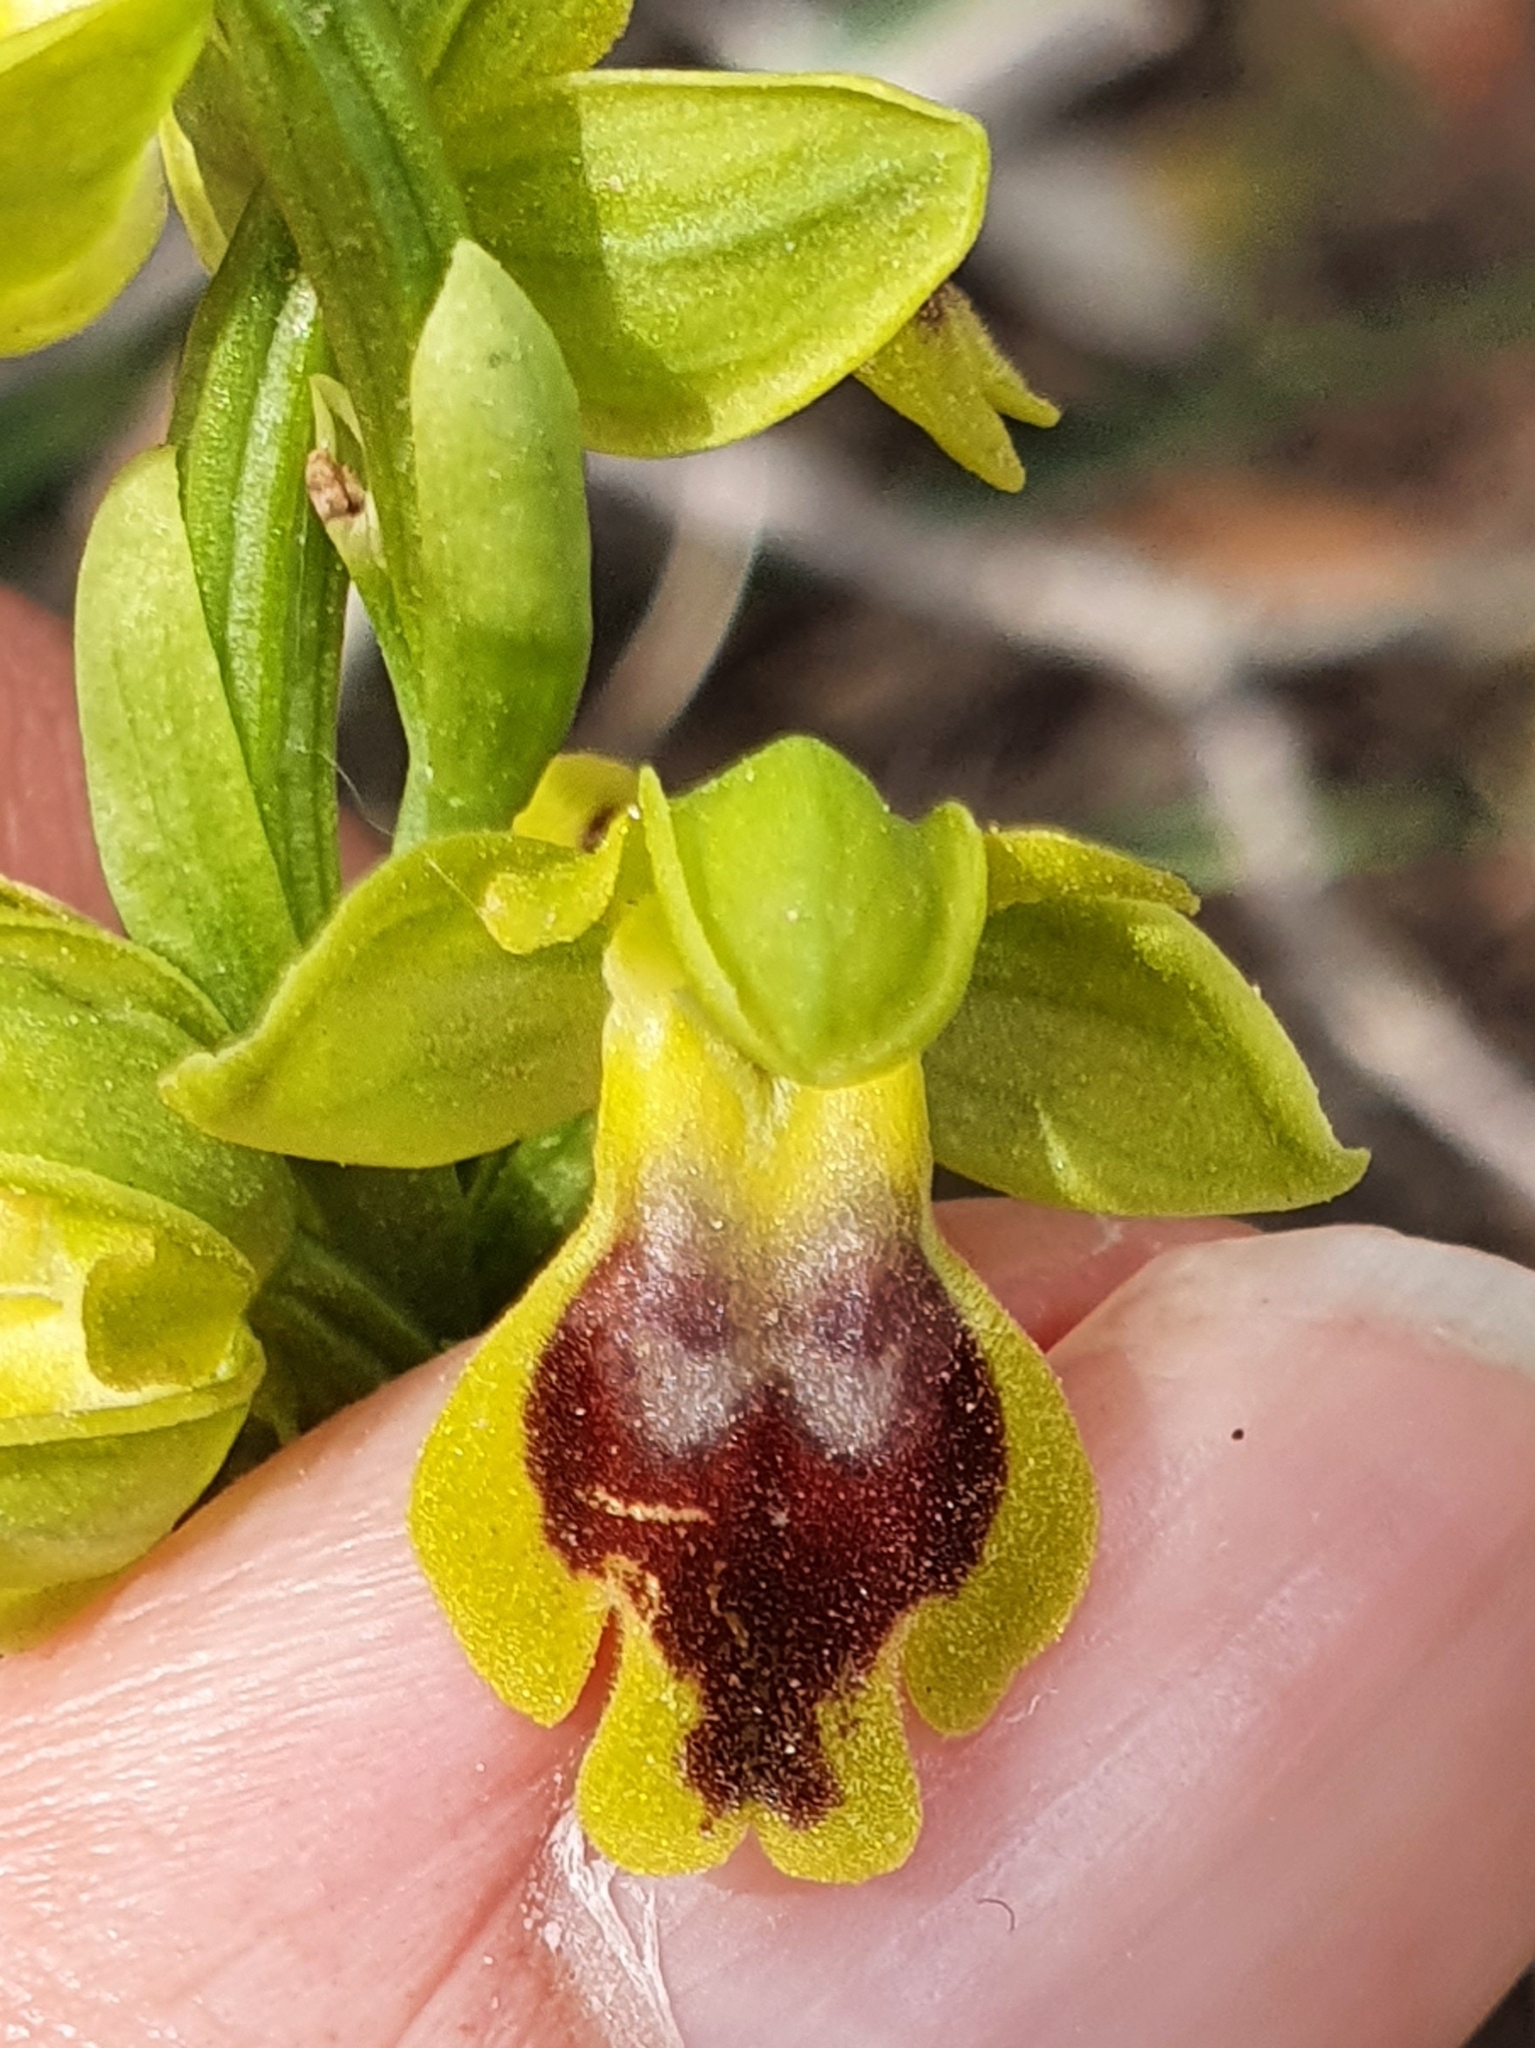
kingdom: Plantae
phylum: Tracheophyta
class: Liliopsida
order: Asparagales
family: Orchidaceae
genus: Ophrys
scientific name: Ophrys battandieri
